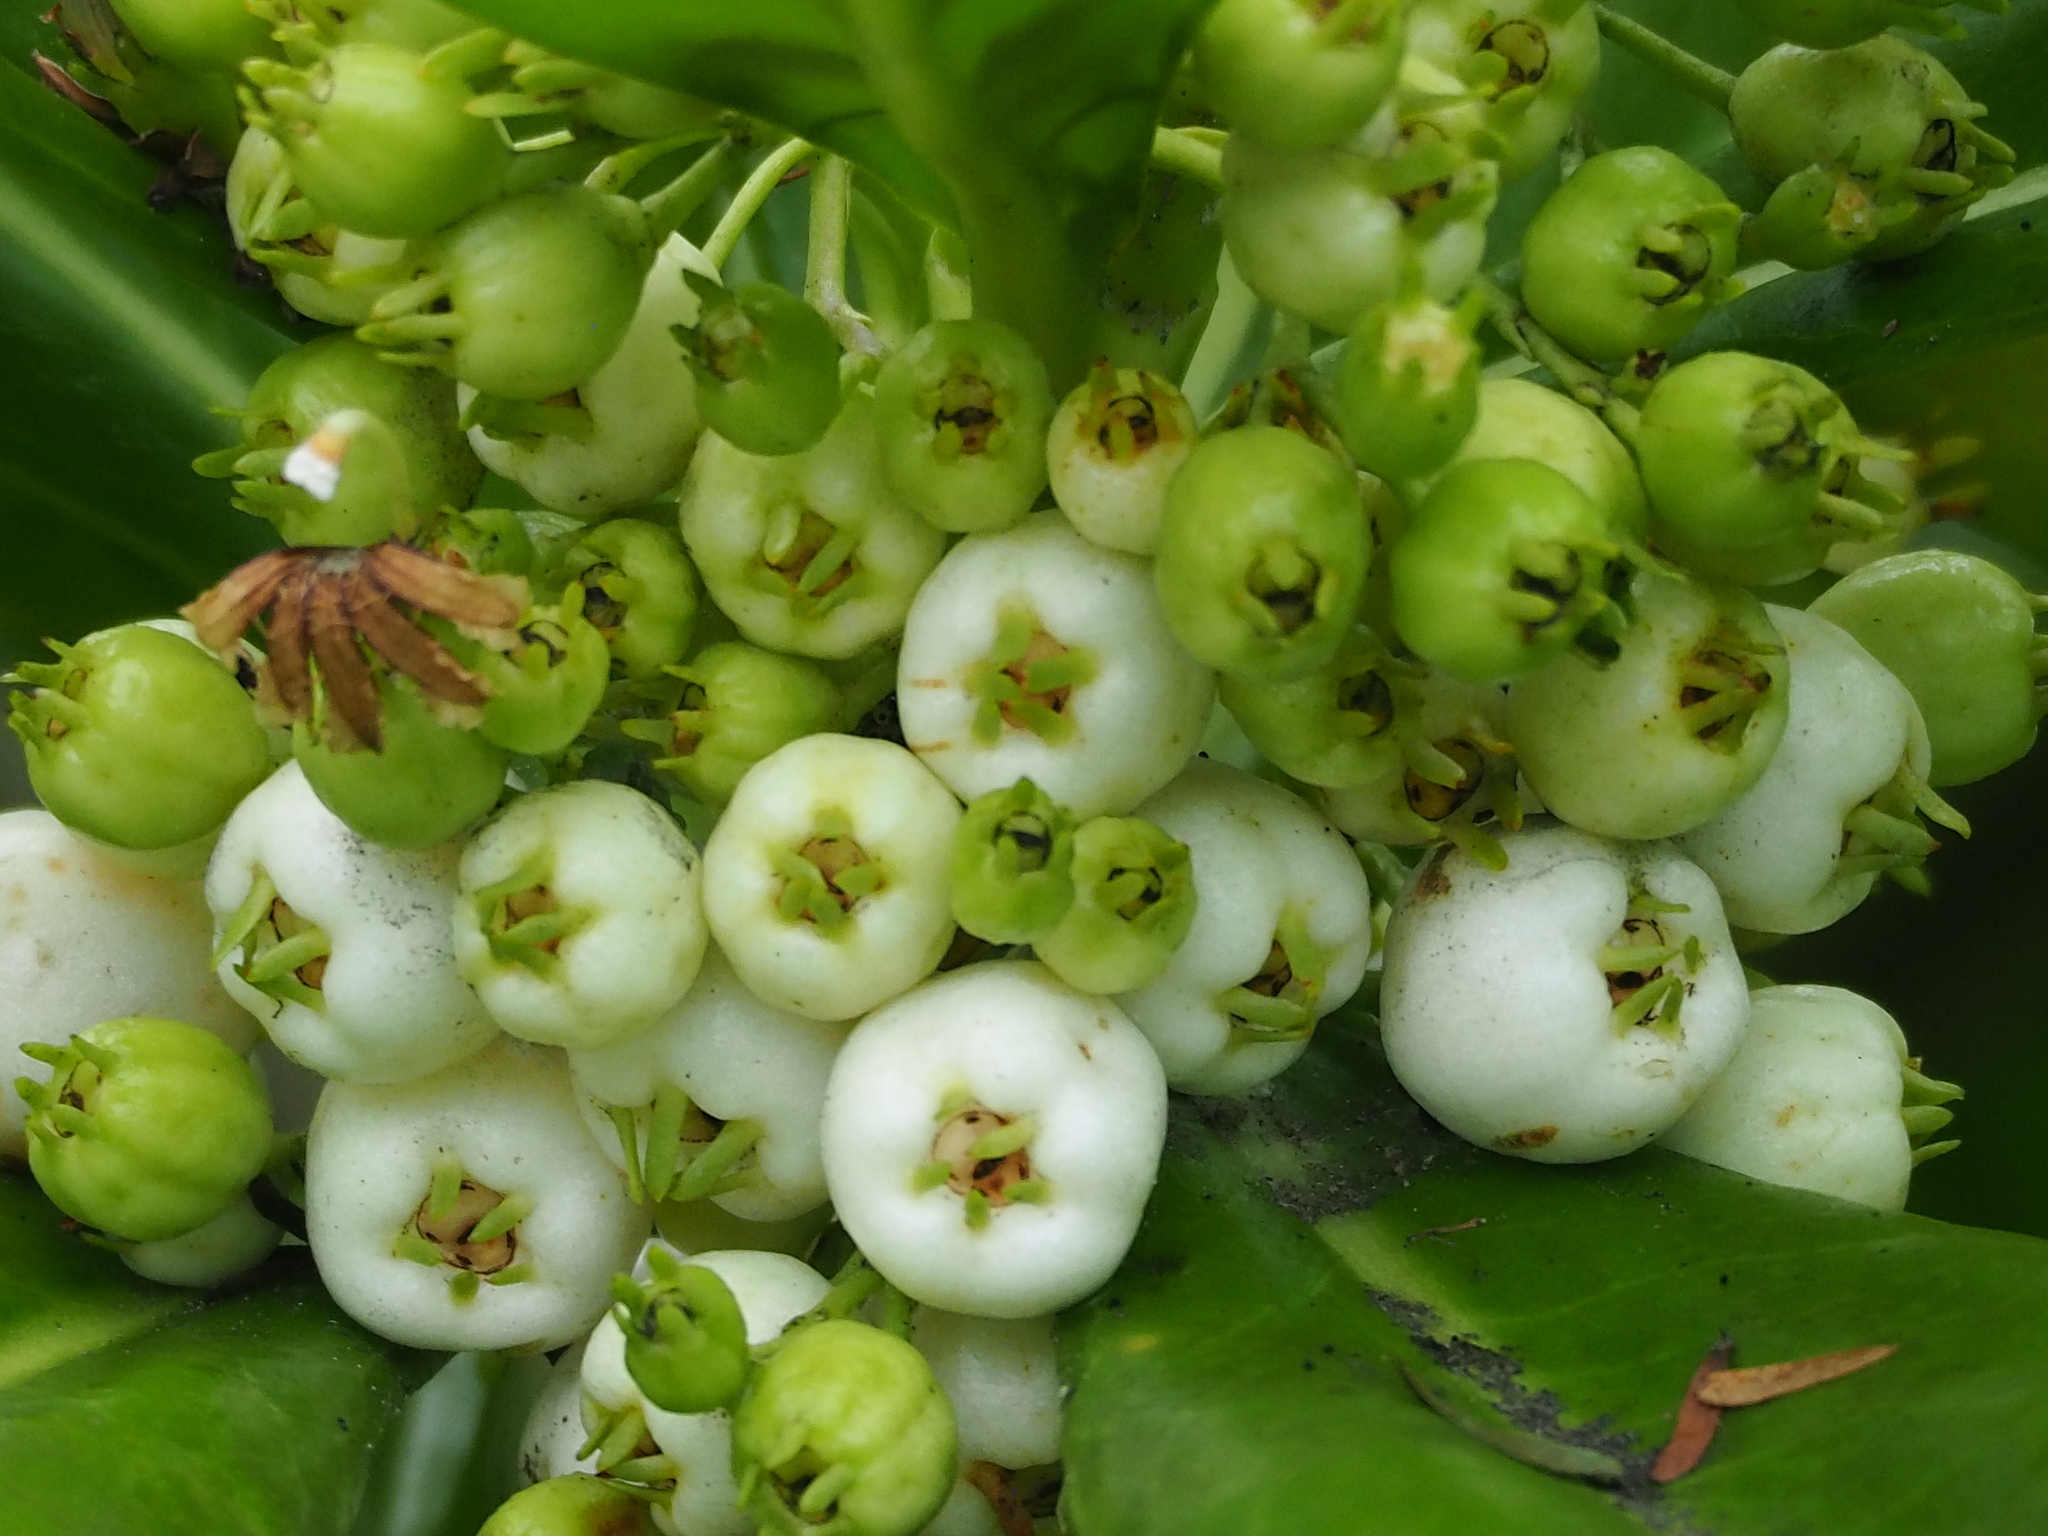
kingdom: Plantae
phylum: Tracheophyta
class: Magnoliopsida
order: Asterales
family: Goodeniaceae
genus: Scaevola
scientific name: Scaevola taccada
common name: Sea lettucetree
